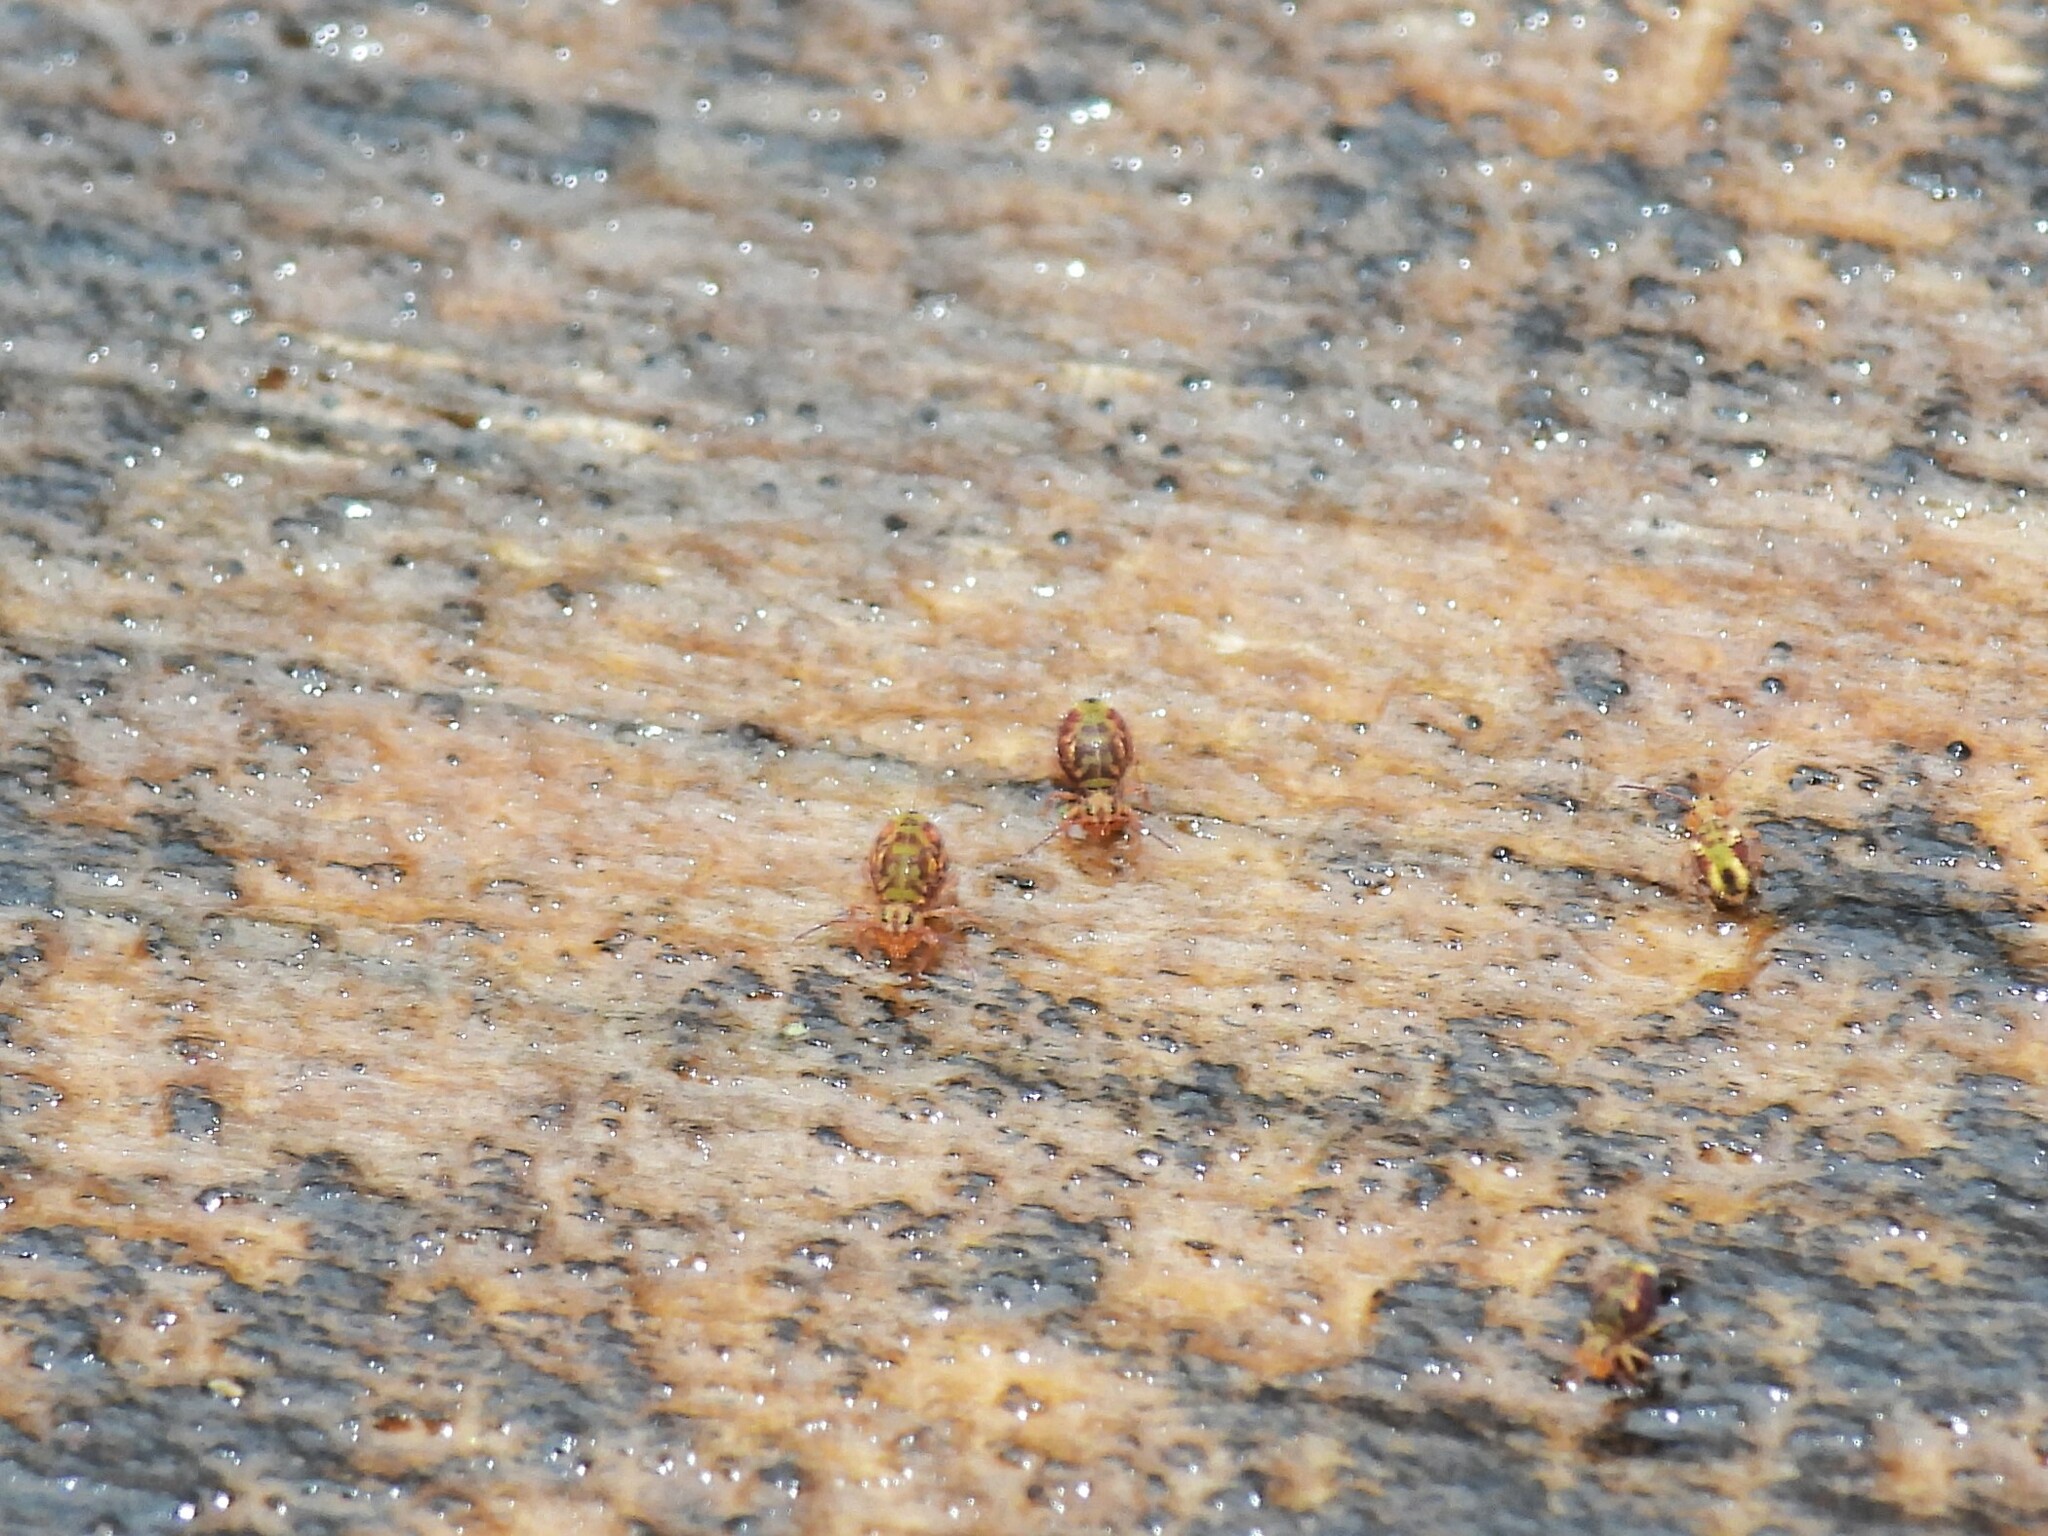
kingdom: Animalia
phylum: Arthropoda
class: Collembola
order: Symphypleona
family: Dicyrtomidae
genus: Dicyrtomina
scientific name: Dicyrtomina minuta
